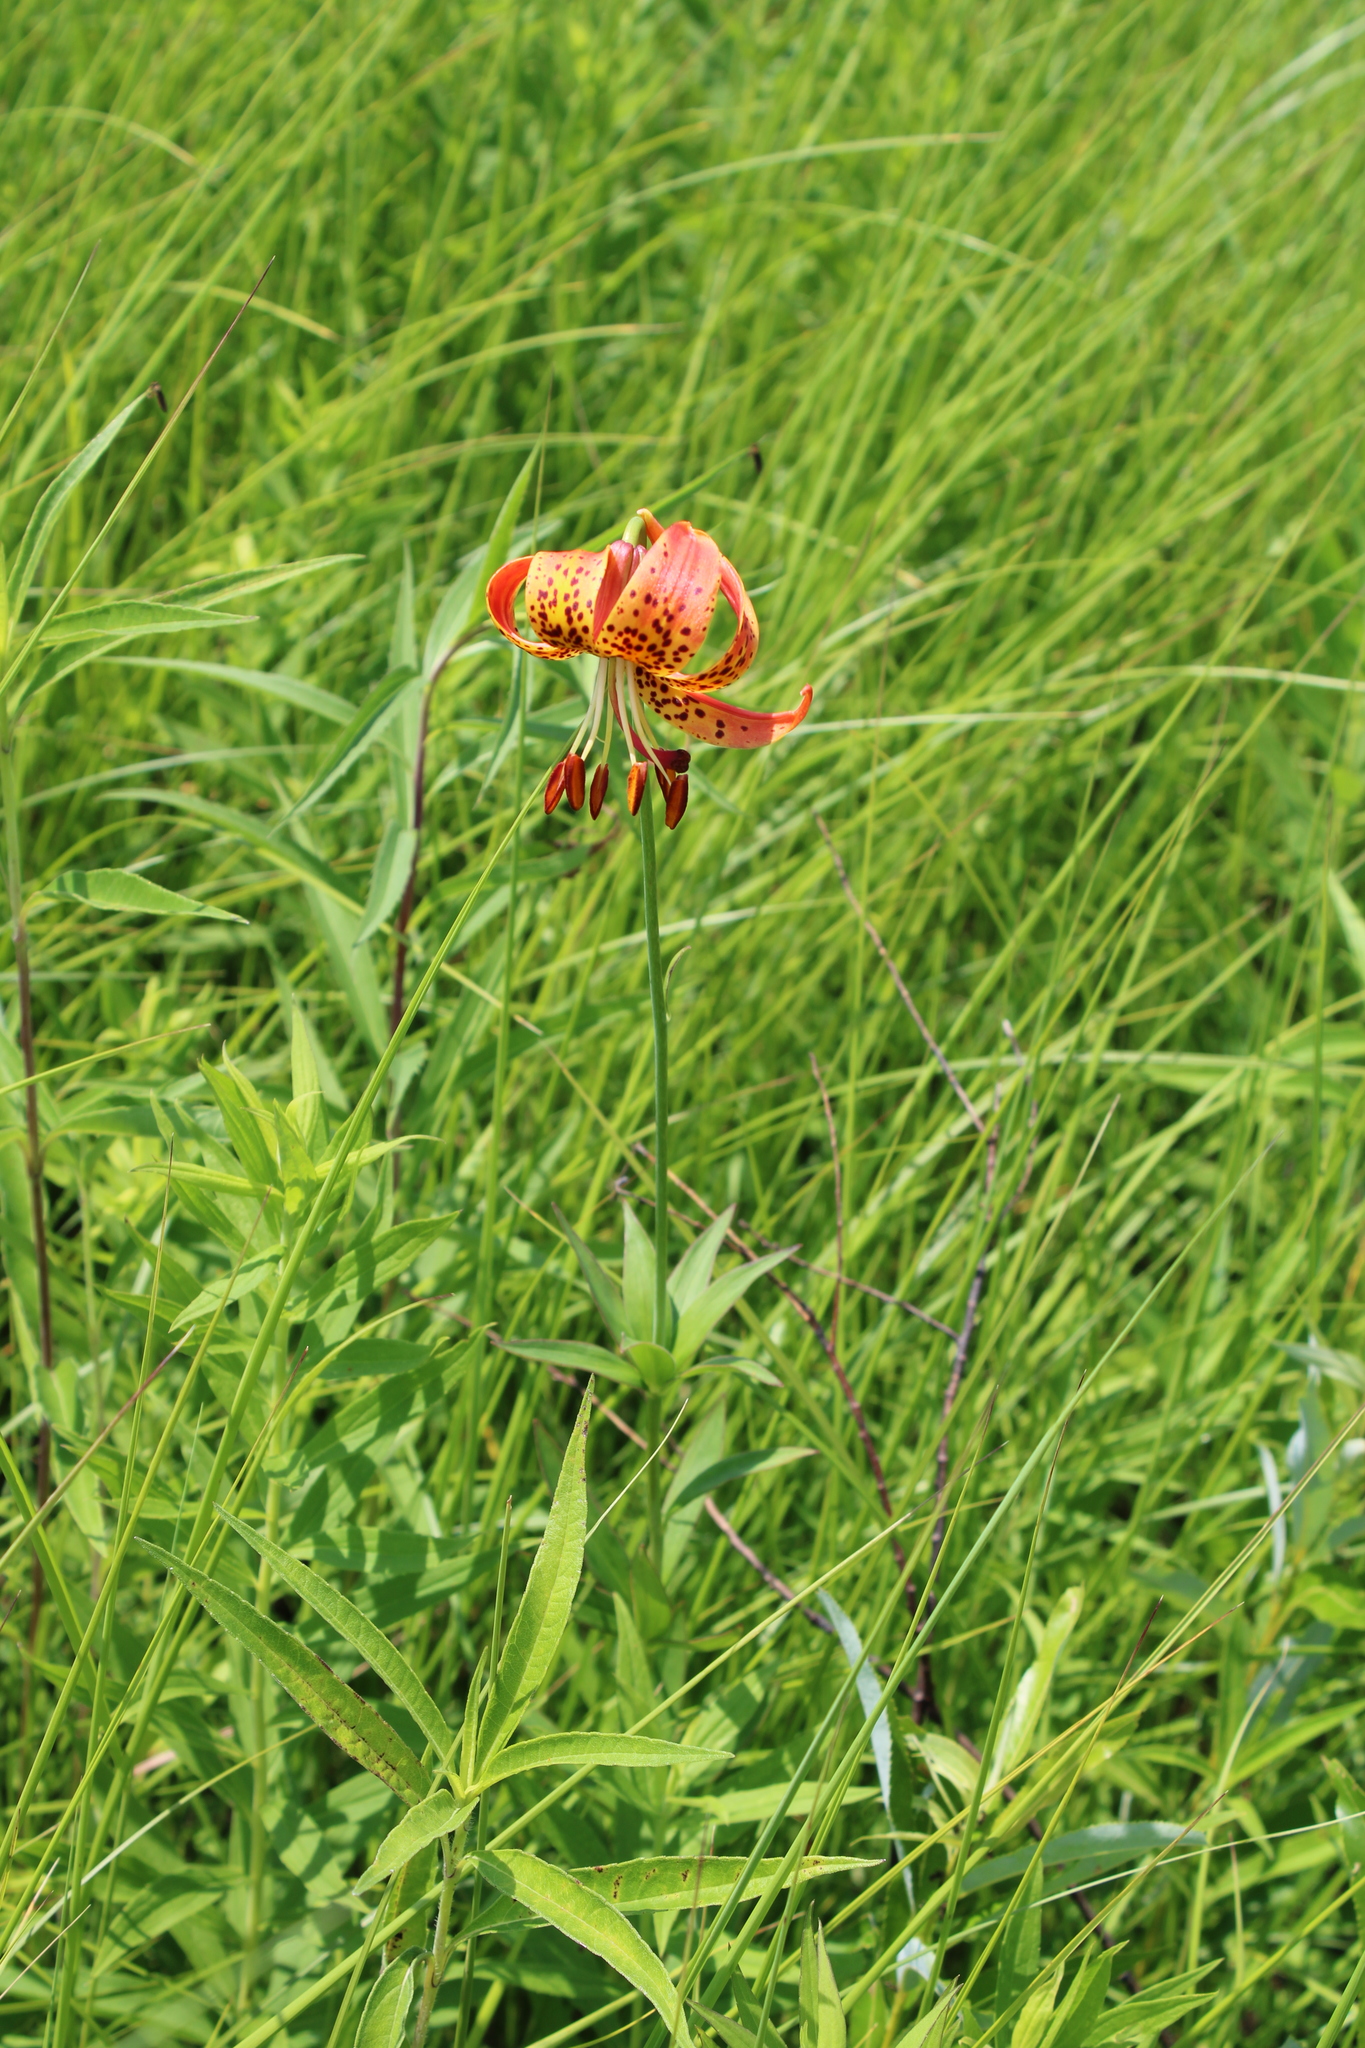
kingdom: Plantae
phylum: Tracheophyta
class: Liliopsida
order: Liliales
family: Liliaceae
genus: Lilium
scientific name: Lilium michiganense
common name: Michigan lily
